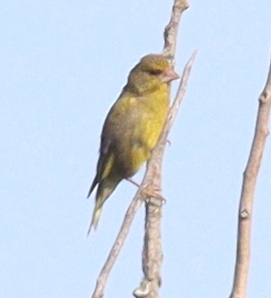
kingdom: Plantae
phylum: Tracheophyta
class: Liliopsida
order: Poales
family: Poaceae
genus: Chloris
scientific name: Chloris chloris
